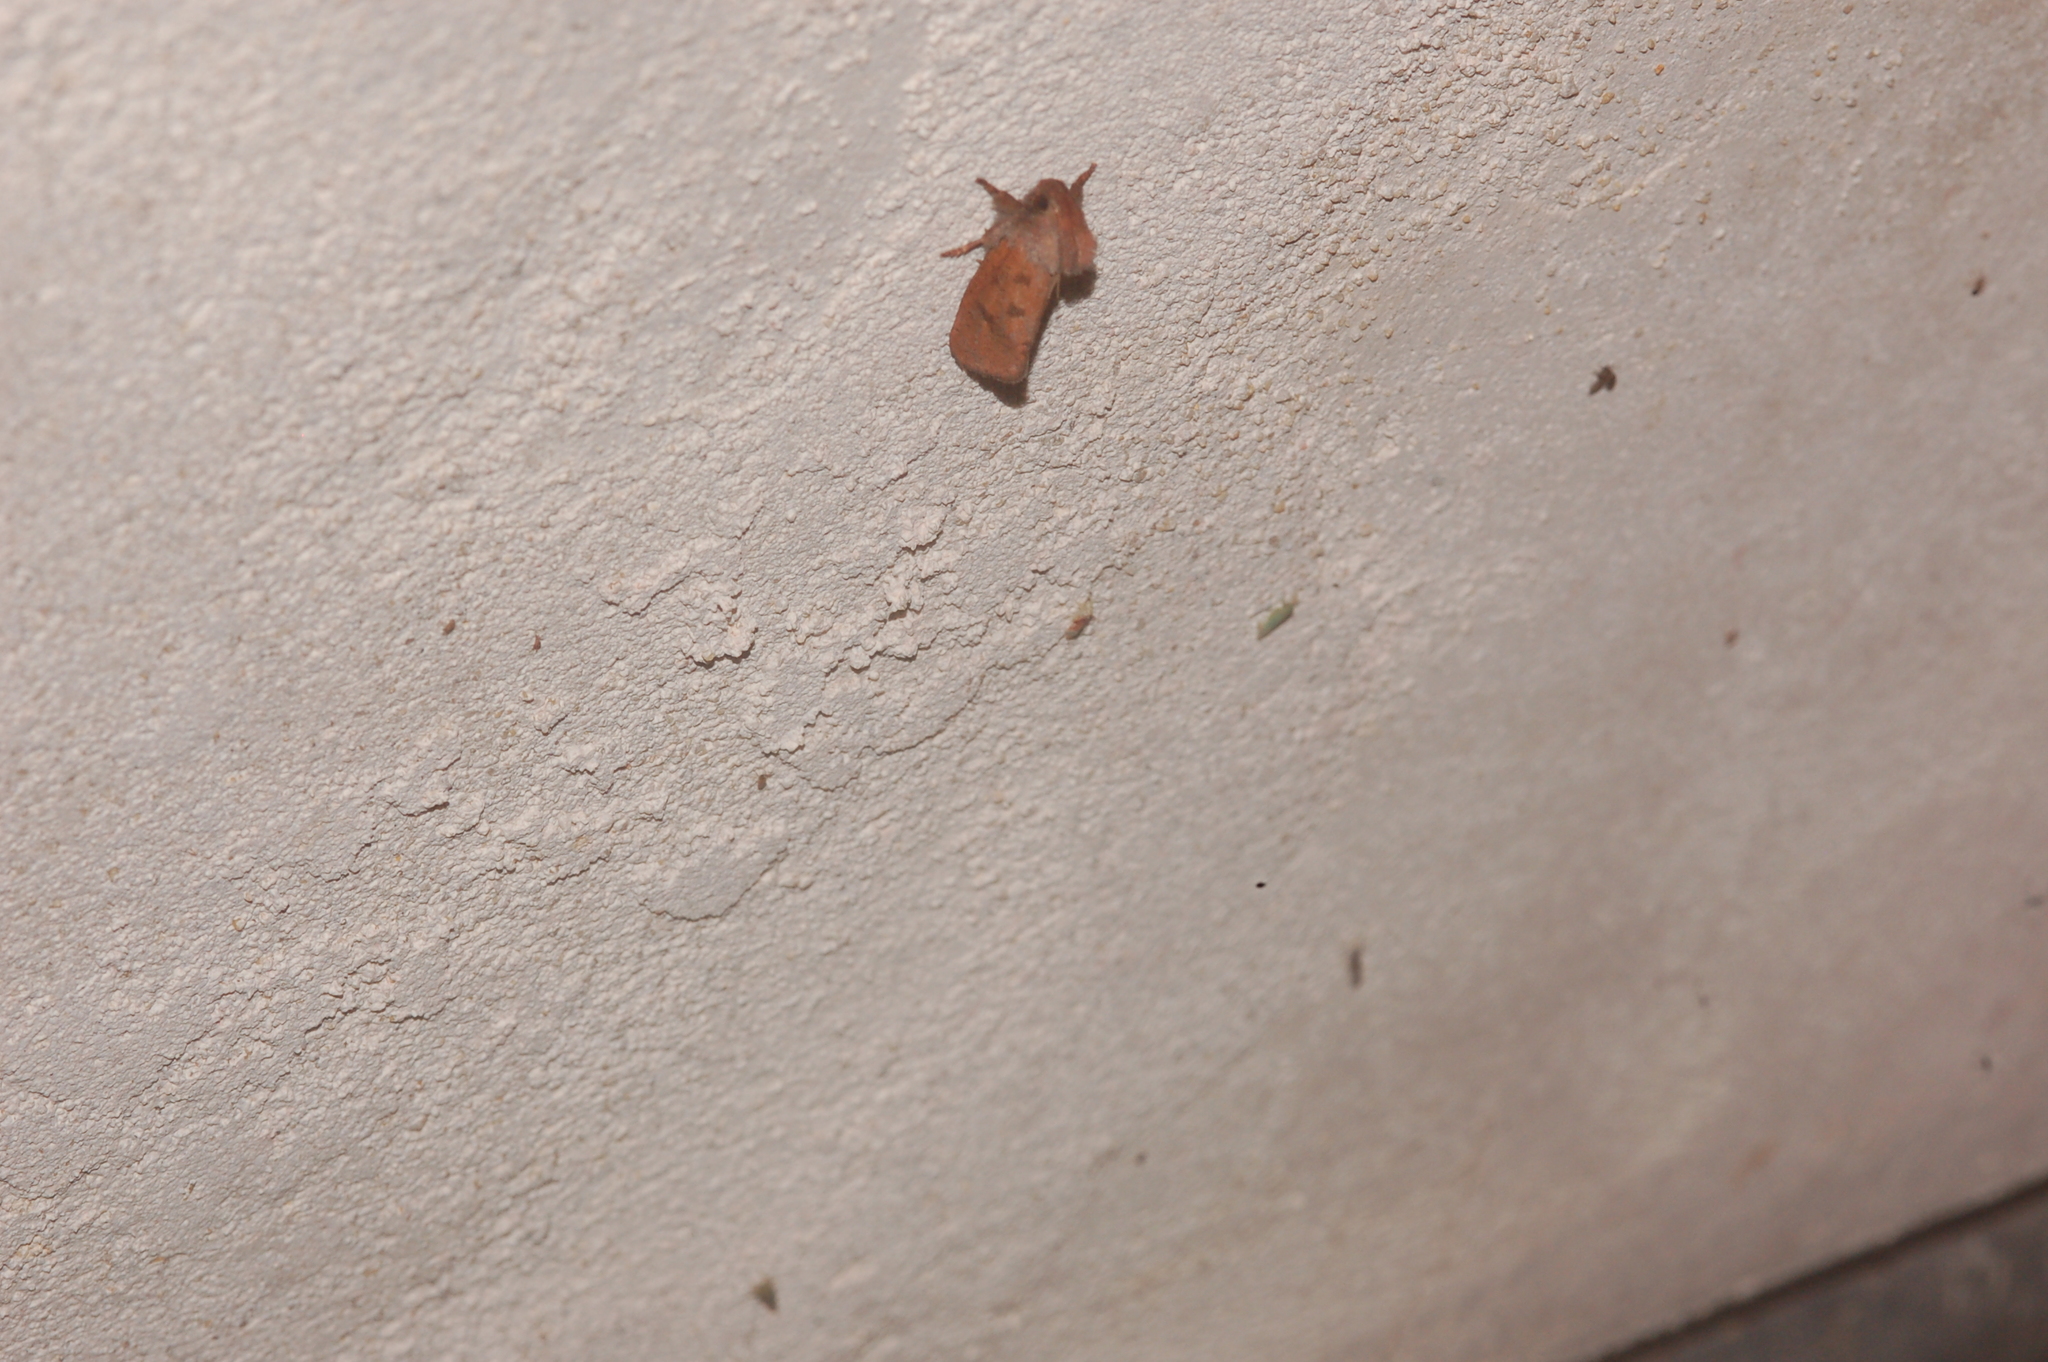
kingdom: Animalia
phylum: Arthropoda
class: Insecta
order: Lepidoptera
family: Tineidae
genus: Acrolophus
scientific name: Acrolophus plumifrontella
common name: Eastern grass tubeworm moth
